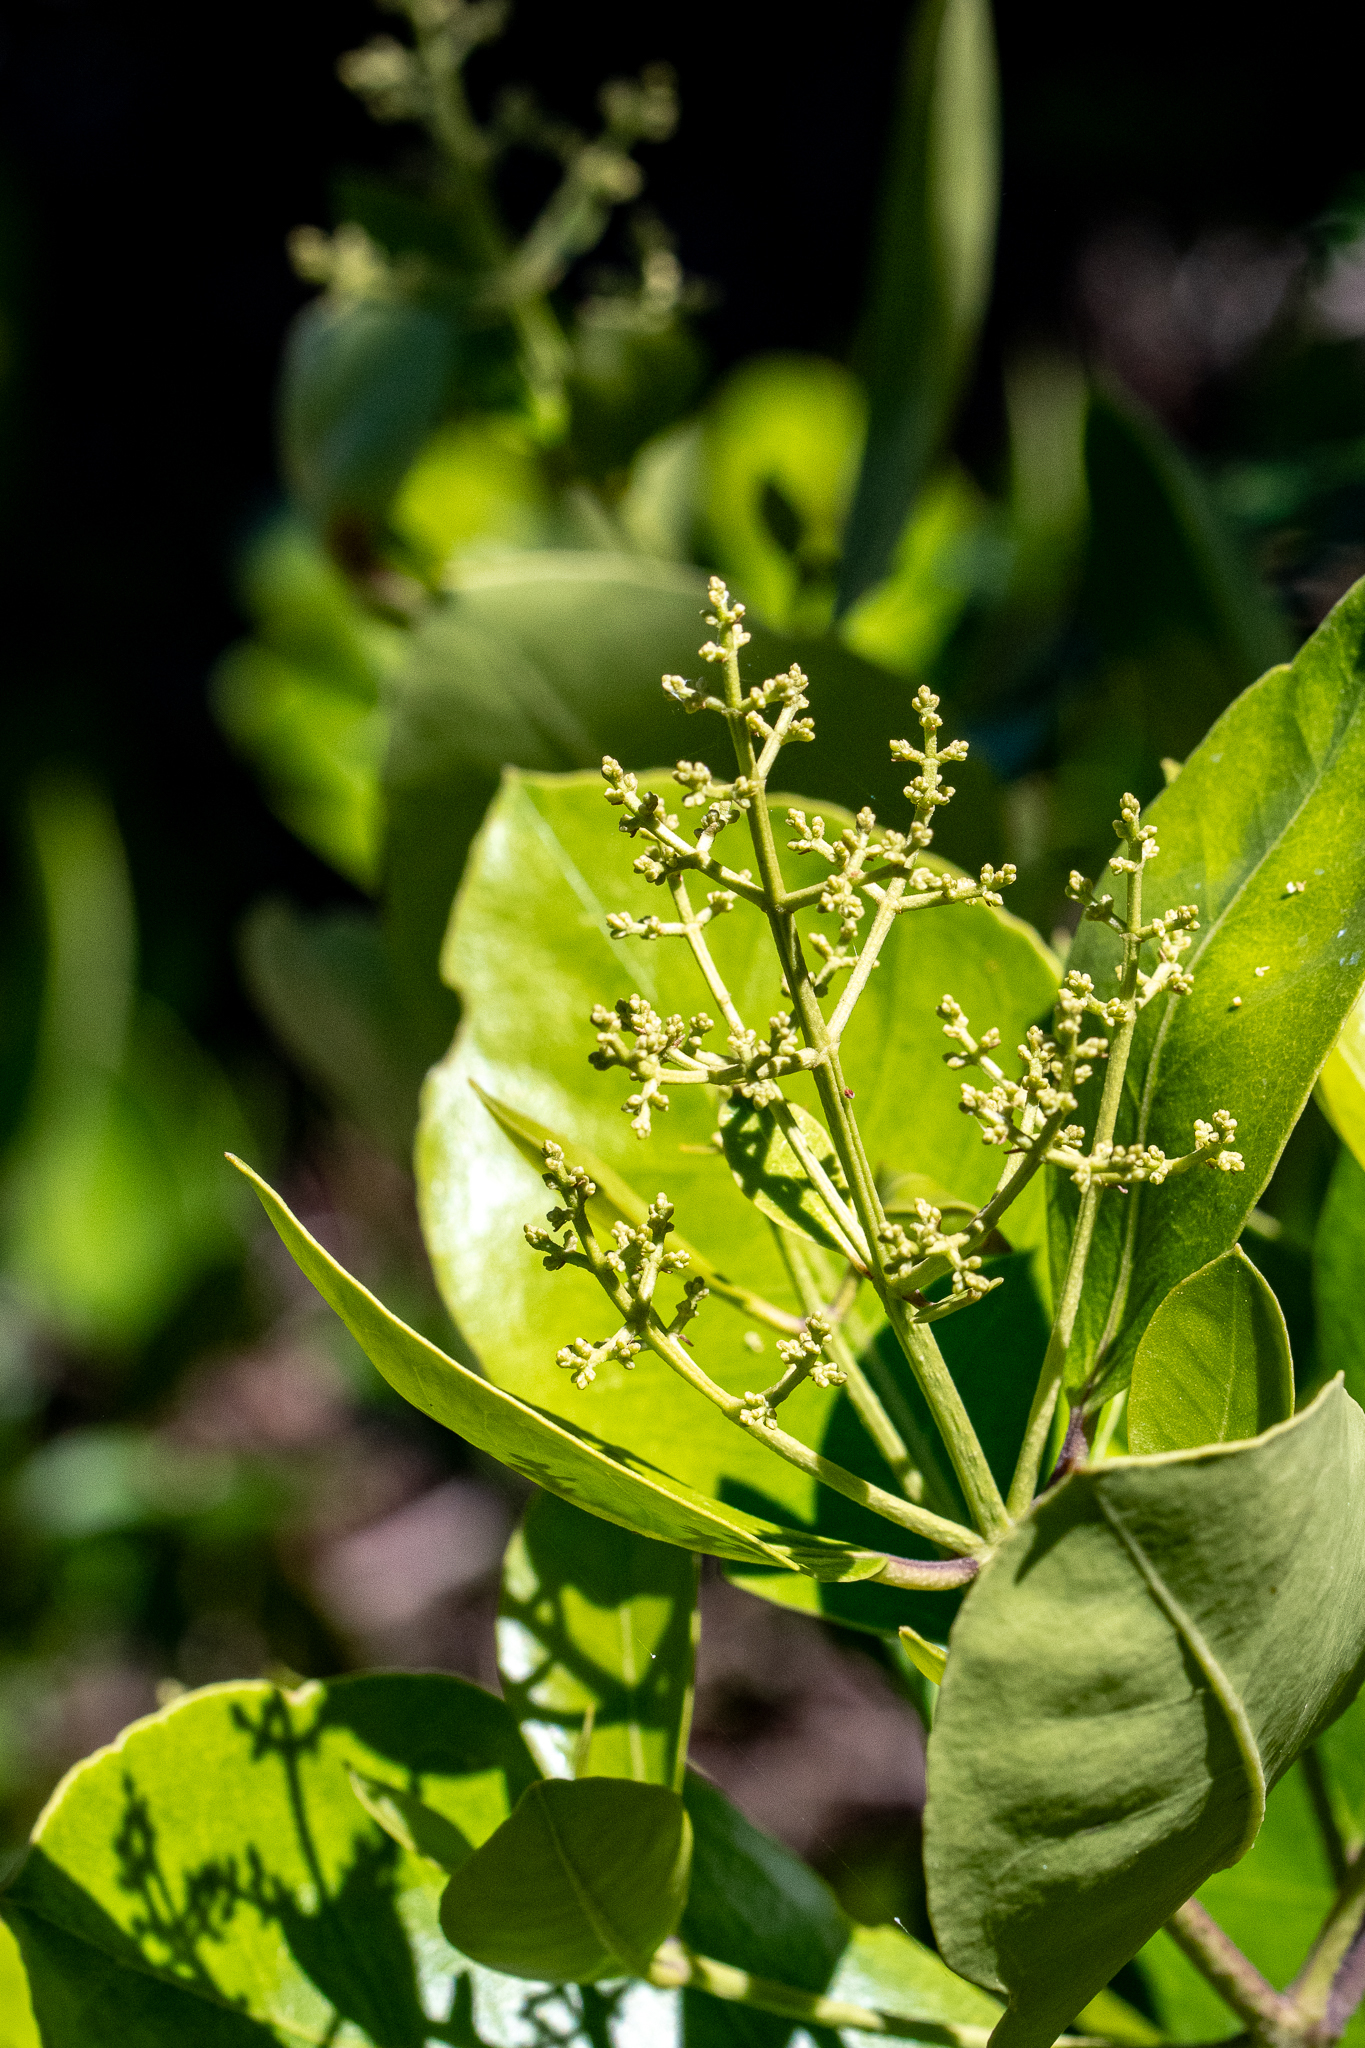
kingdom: Plantae
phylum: Tracheophyta
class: Magnoliopsida
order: Lamiales
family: Oleaceae
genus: Olea
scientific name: Olea capensis
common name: Black ironwood
